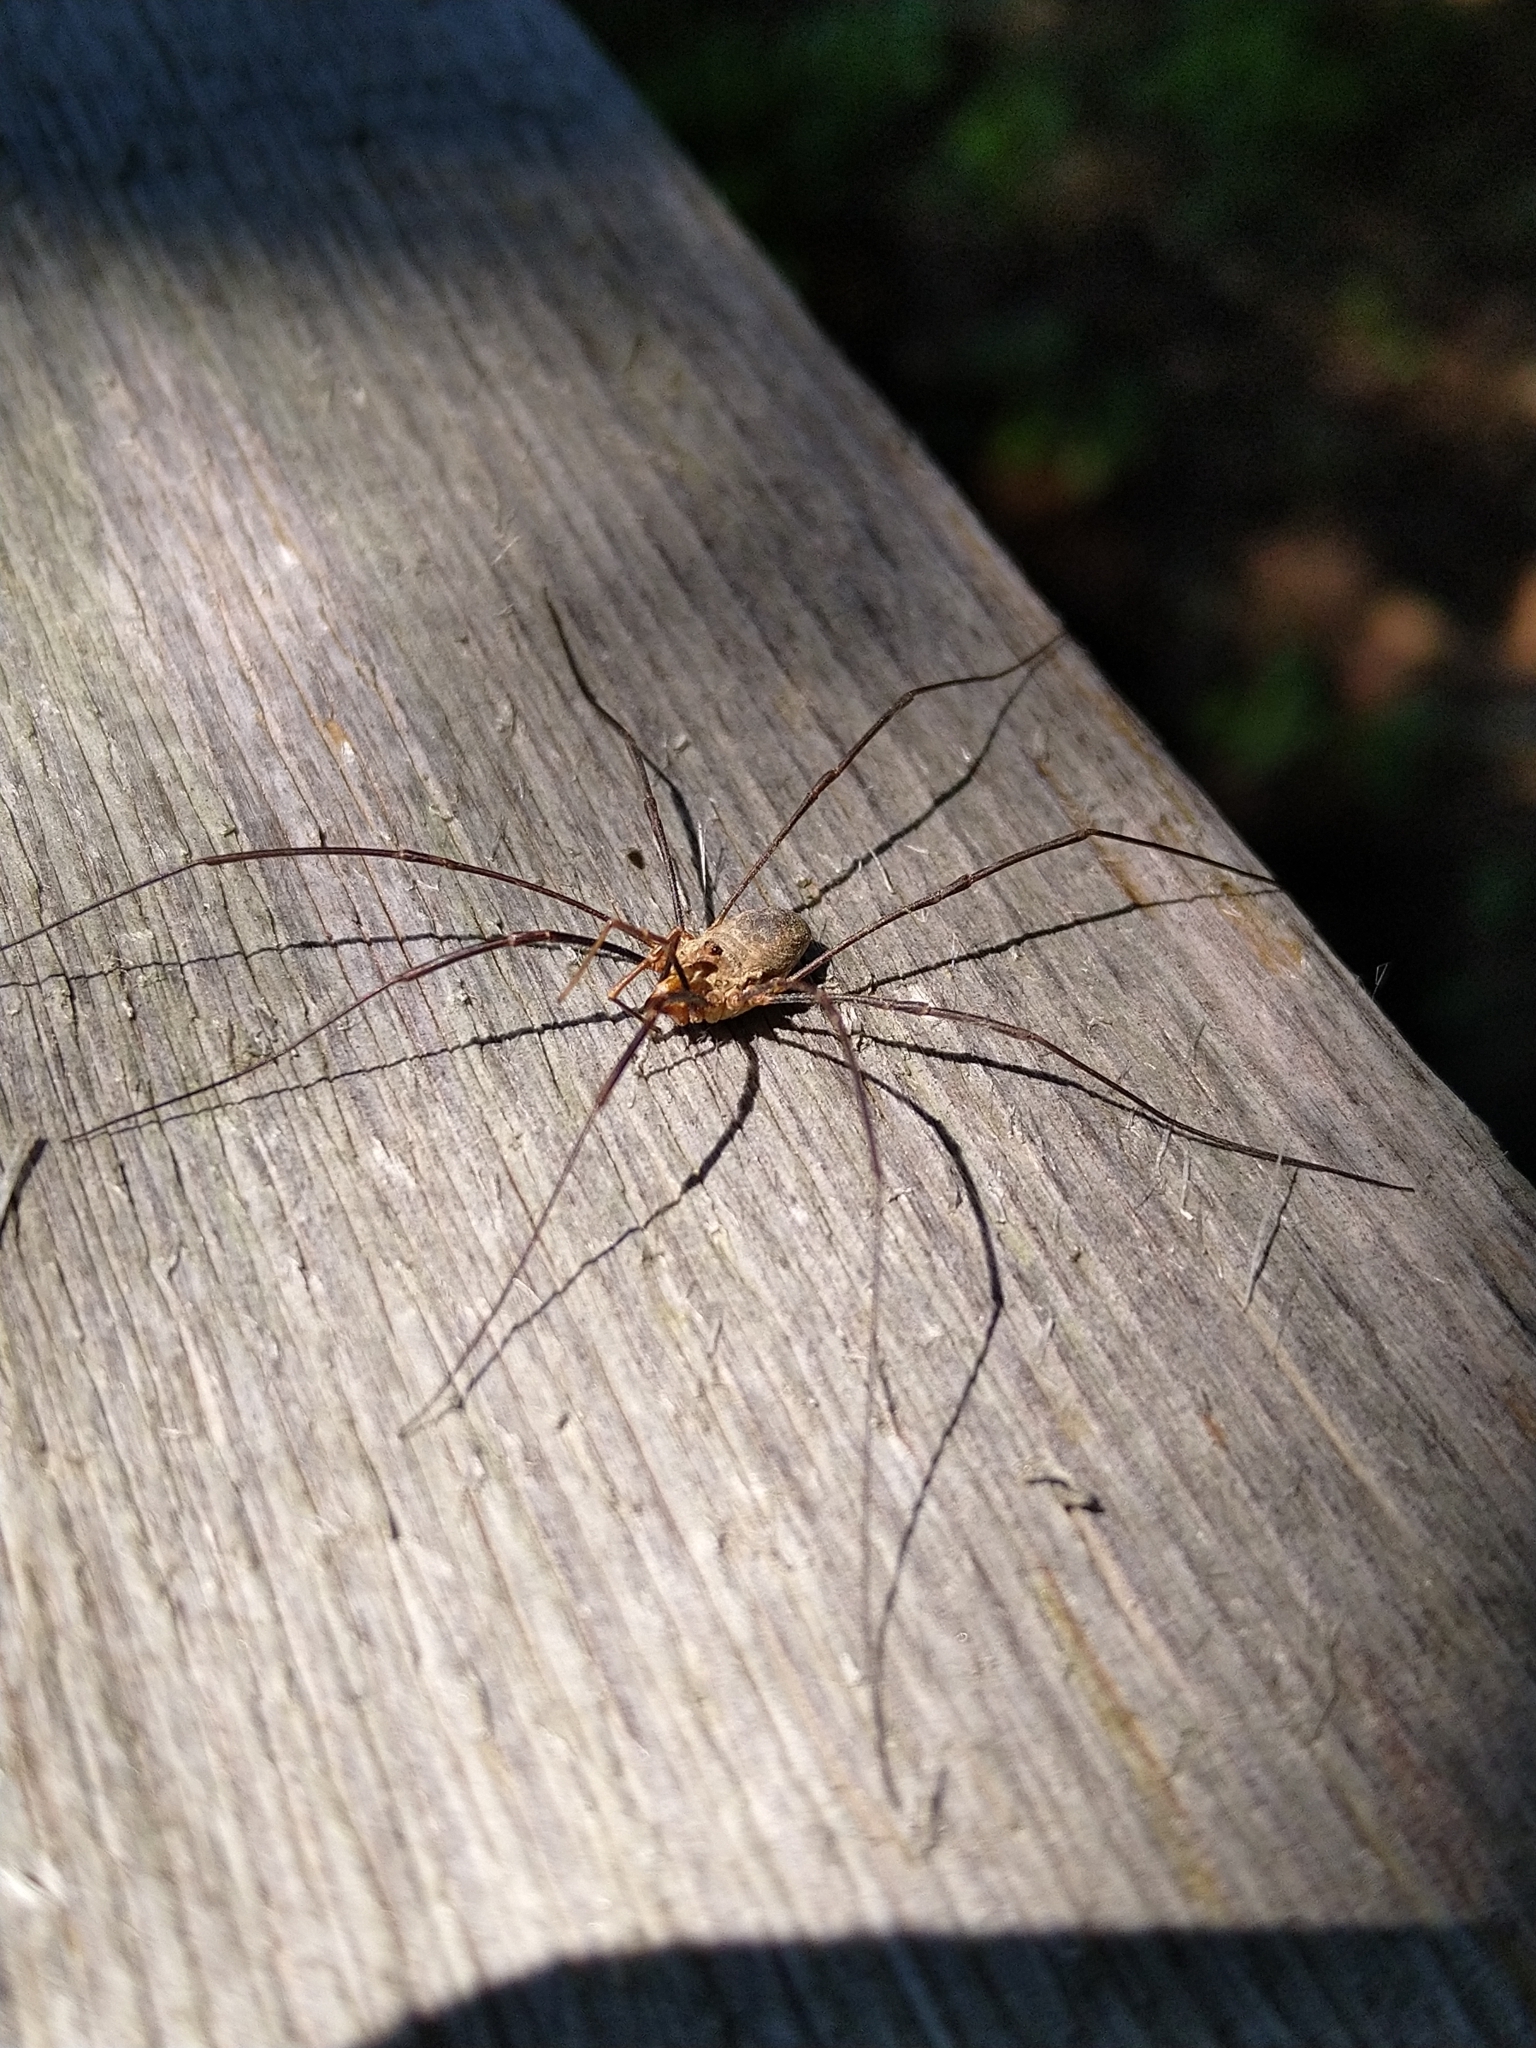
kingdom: Animalia
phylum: Arthropoda
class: Arachnida
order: Opiliones
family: Phalangiidae
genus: Phalangium
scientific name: Phalangium opilio
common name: Daddy longleg
